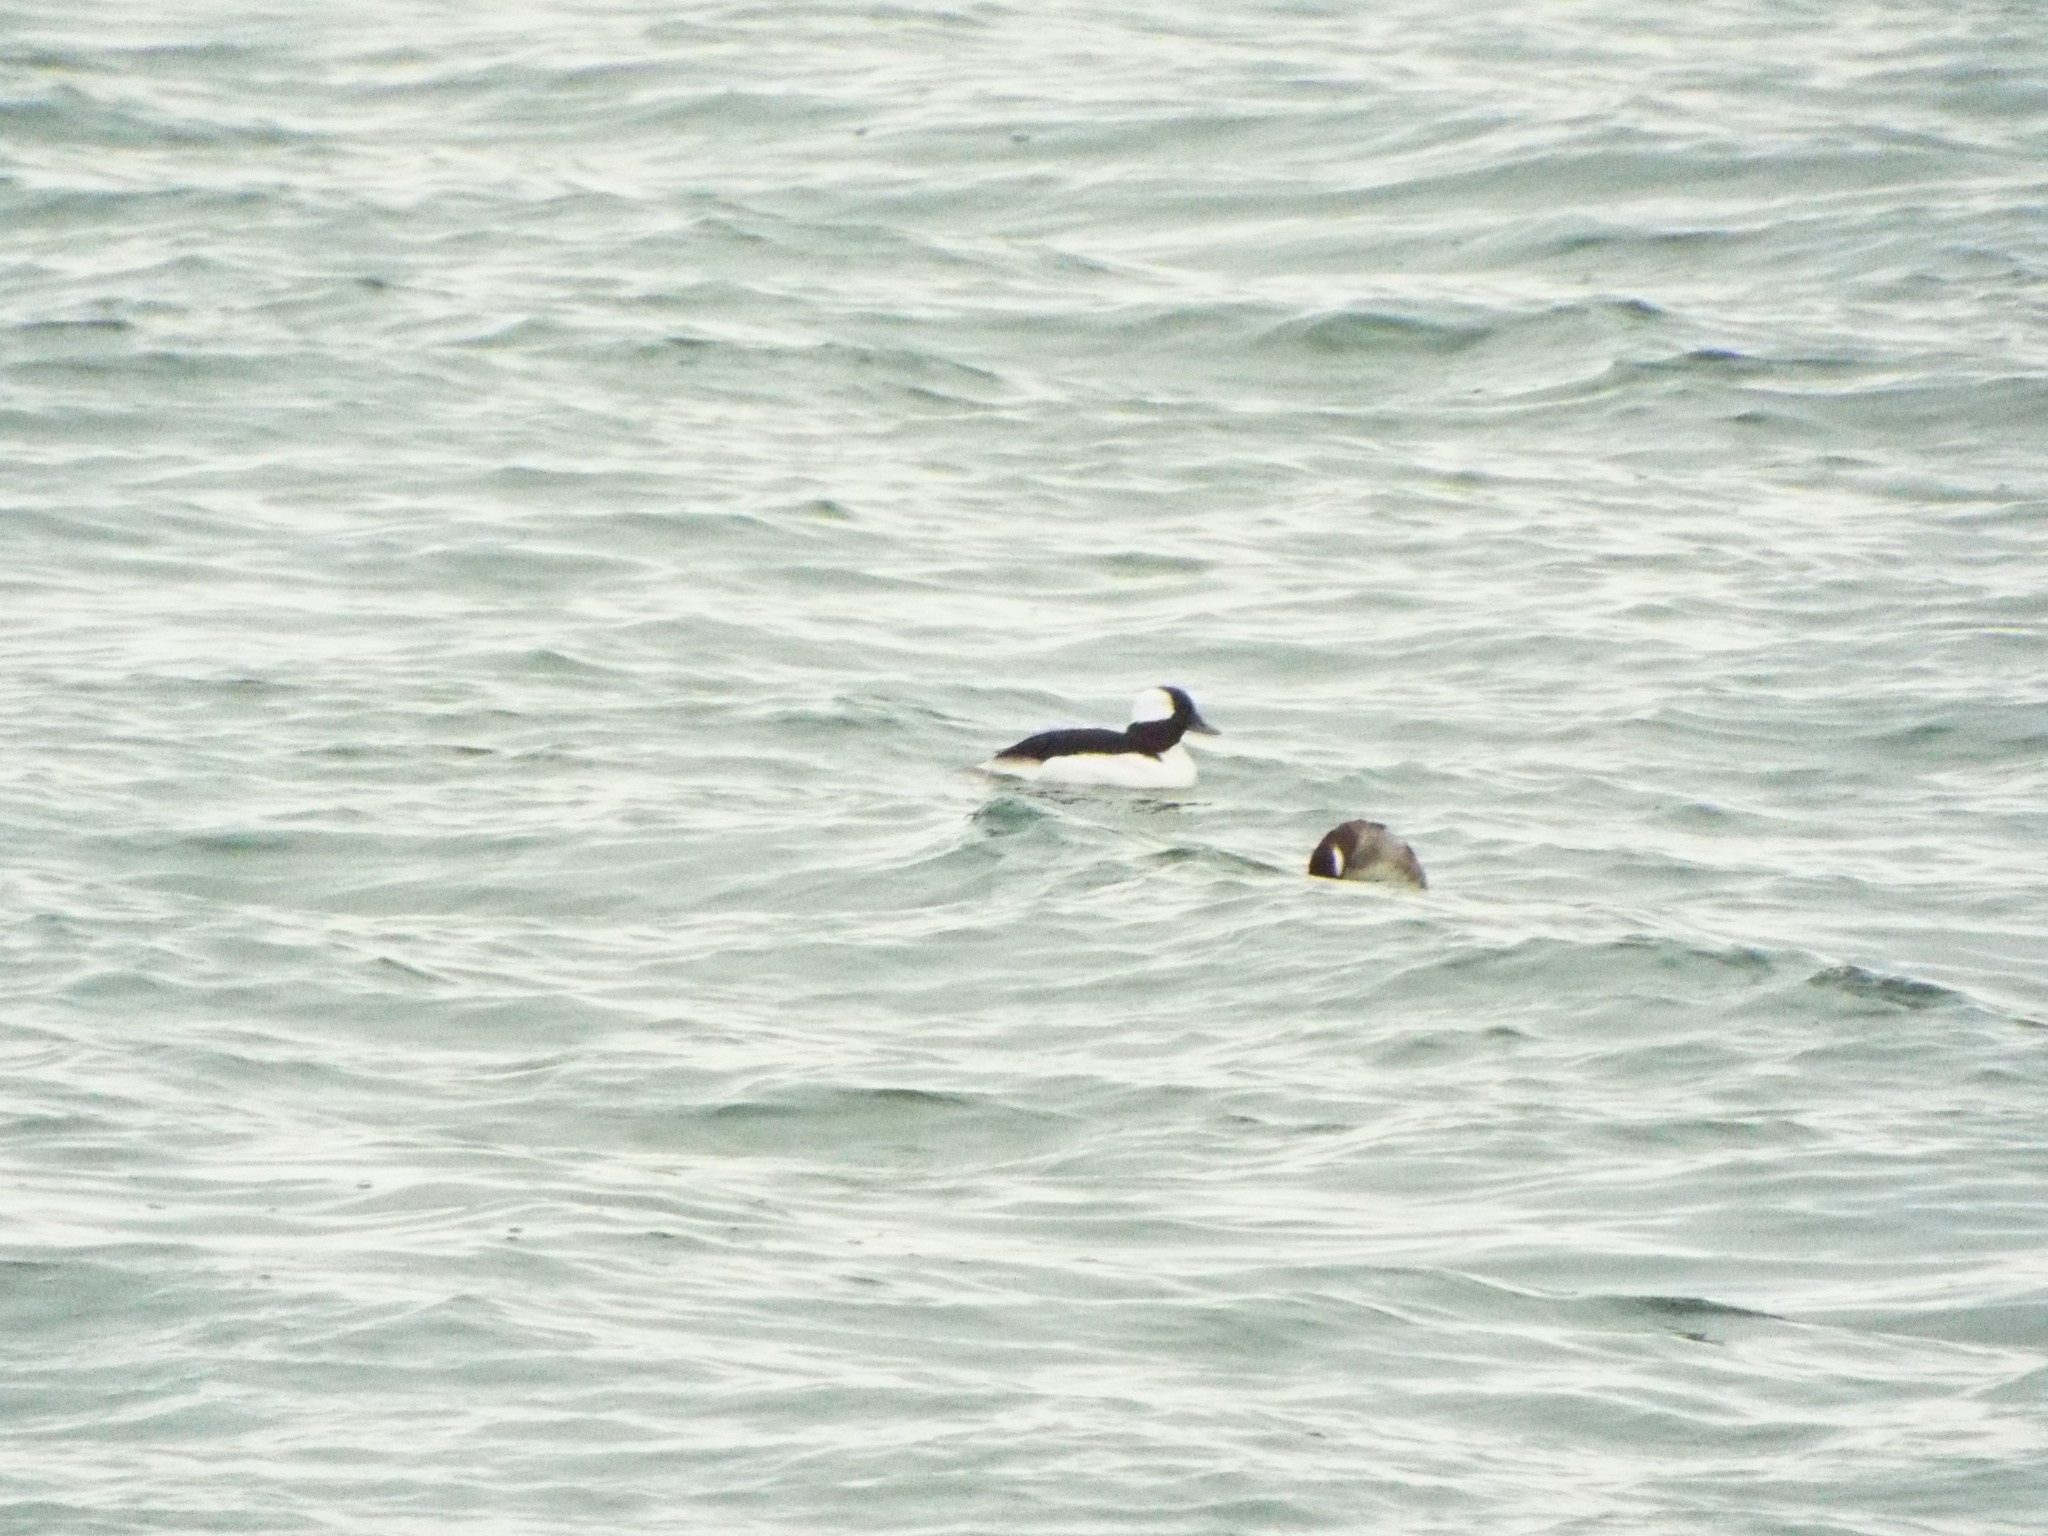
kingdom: Animalia
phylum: Chordata
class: Aves
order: Anseriformes
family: Anatidae
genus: Bucephala
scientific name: Bucephala albeola
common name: Bufflehead
